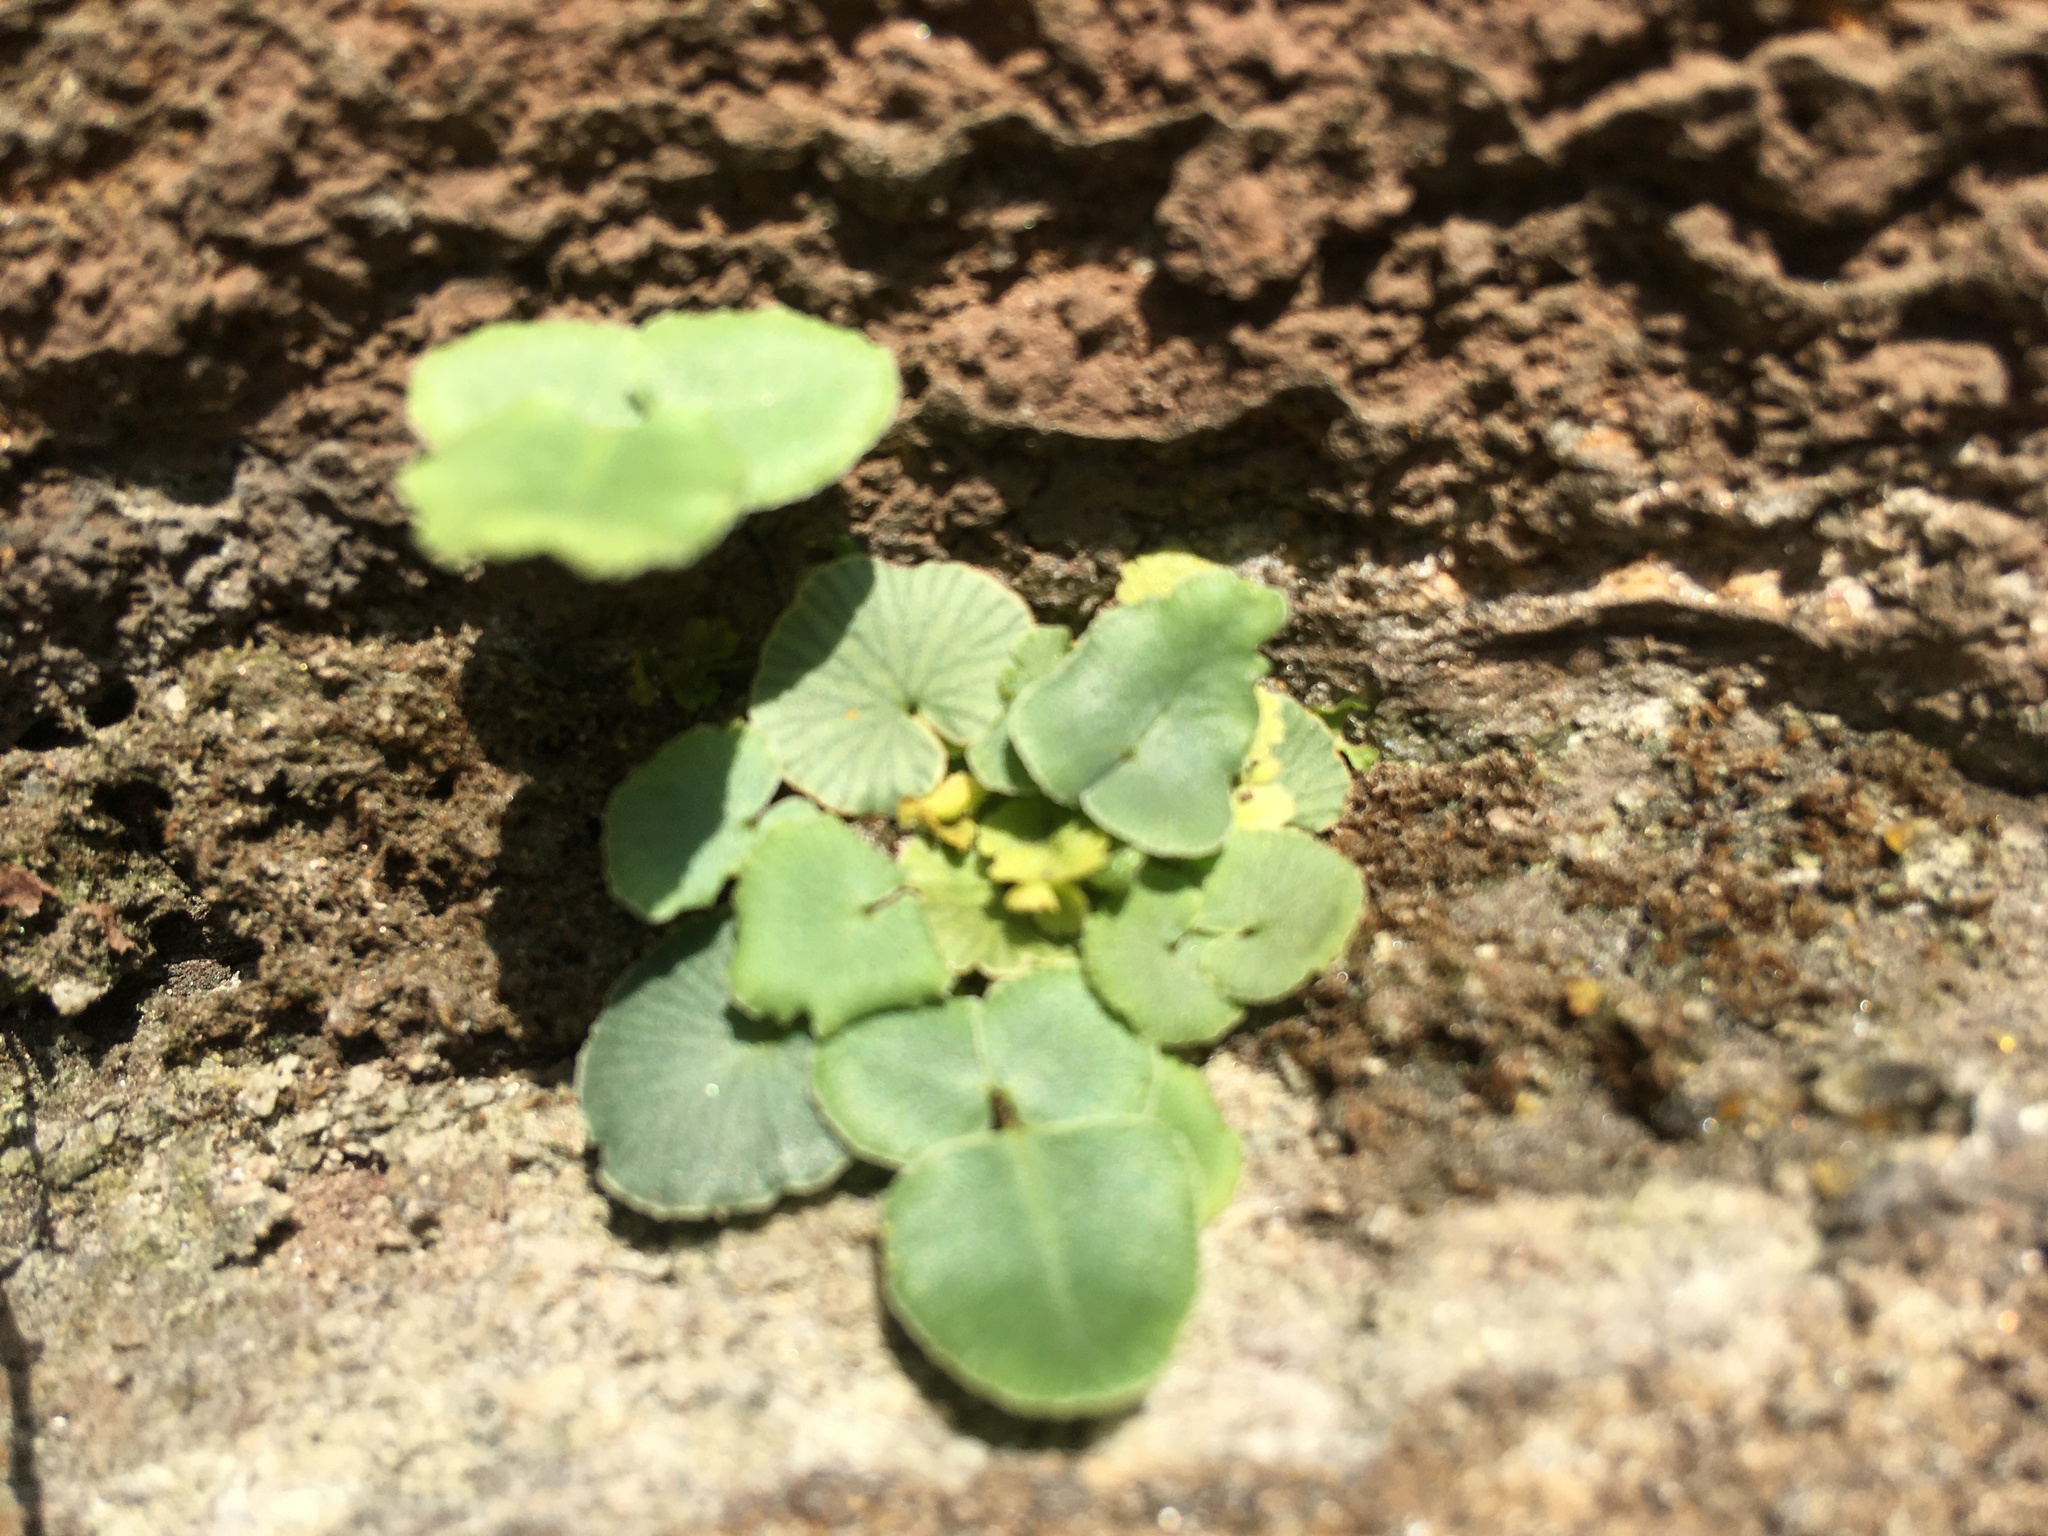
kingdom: Plantae
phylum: Tracheophyta
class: Polypodiopsida
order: Polypodiales
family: Pteridaceae
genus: Pellaea
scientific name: Pellaea atropurpurea
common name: Hairy cliffbrake
